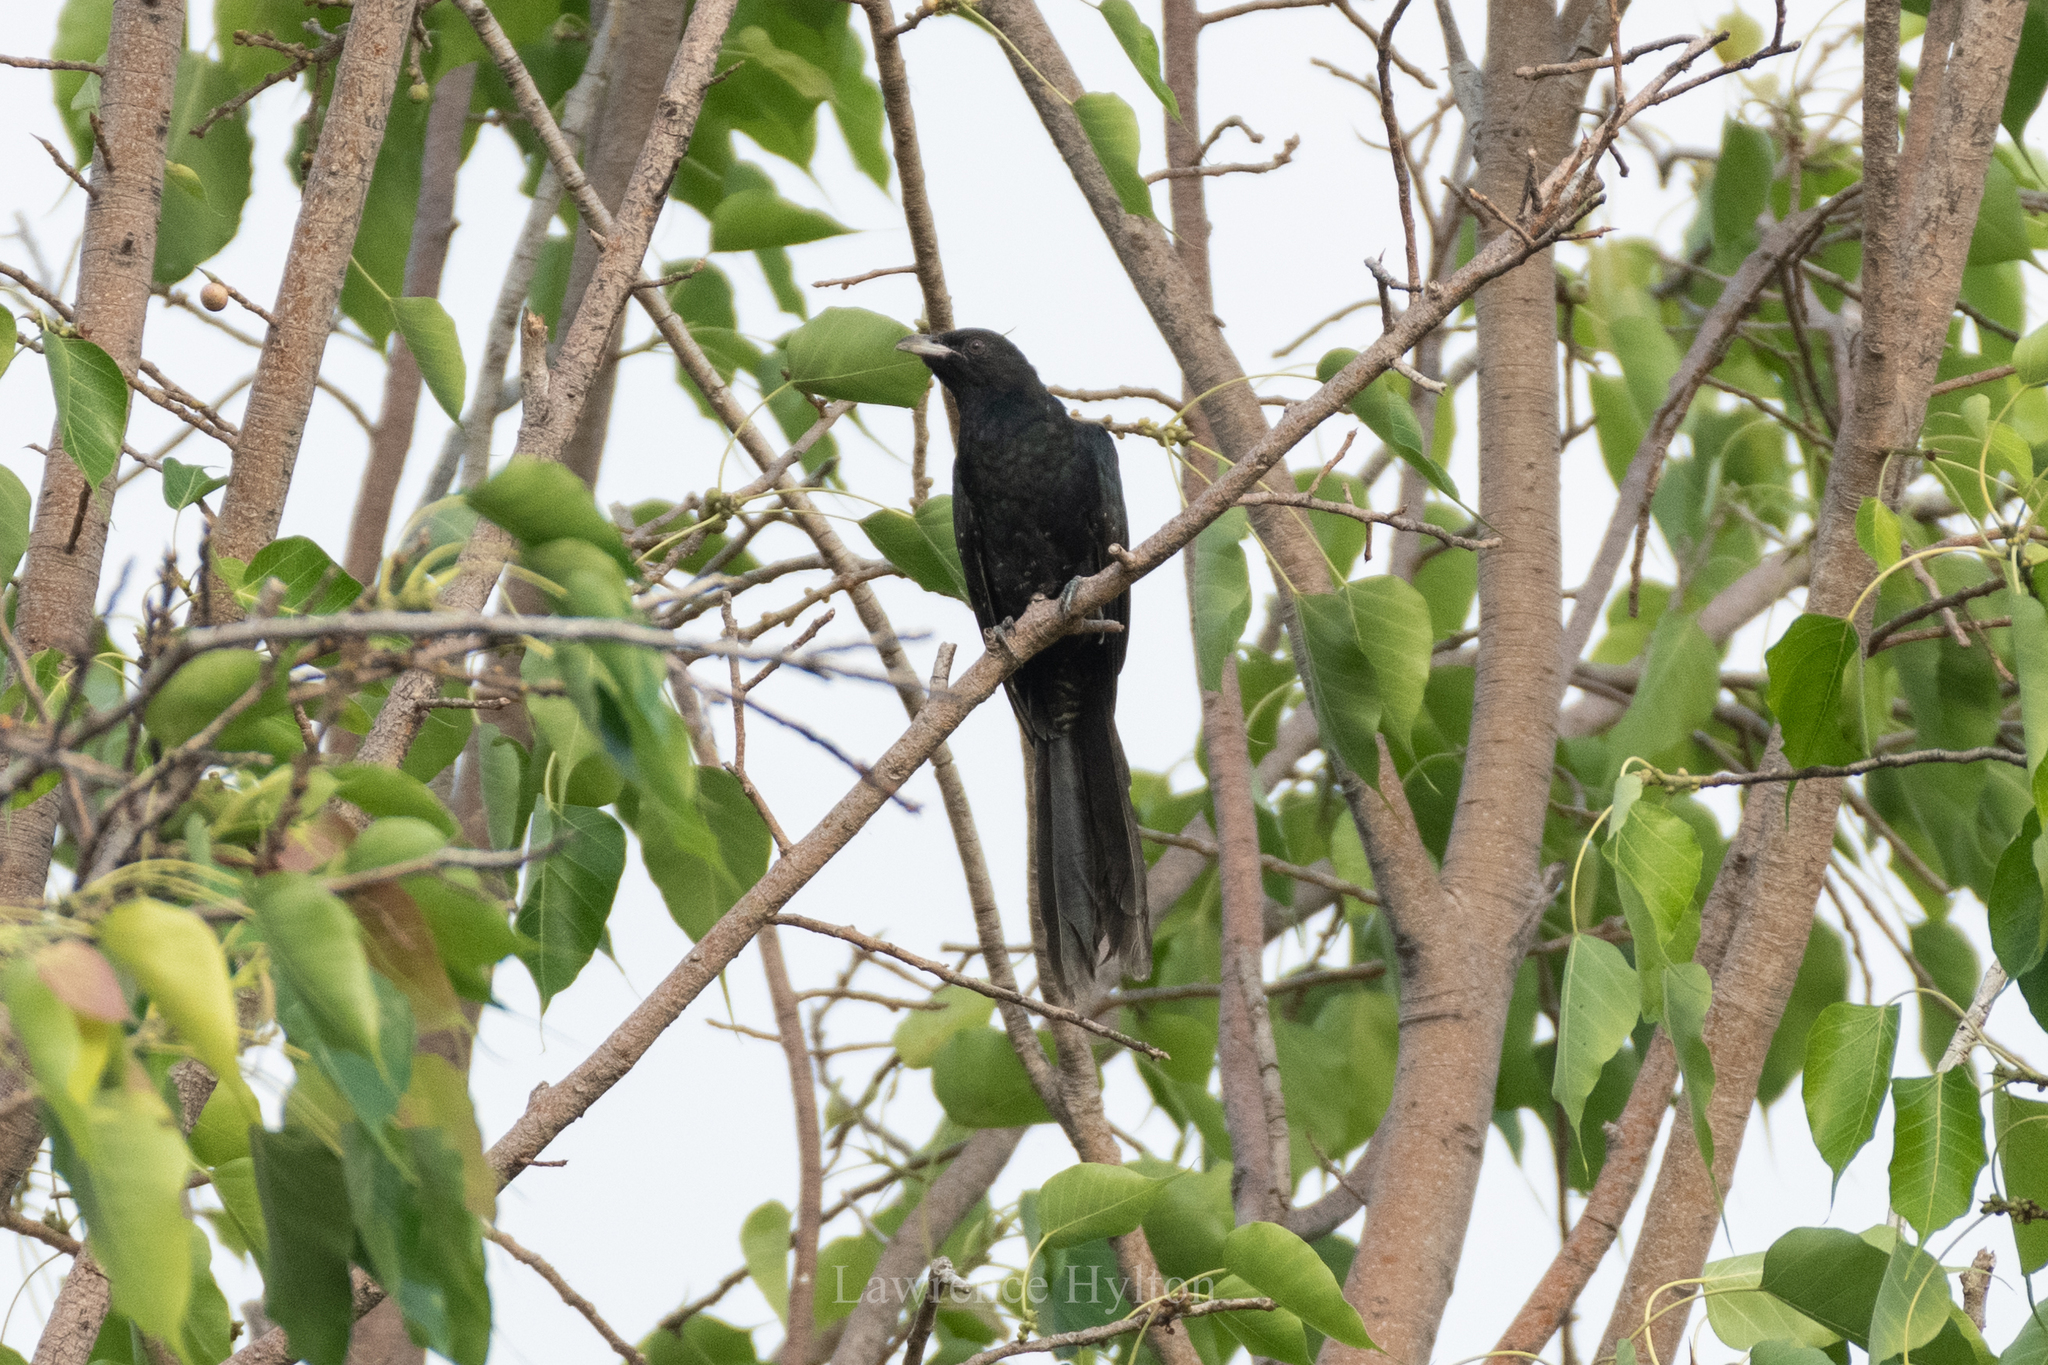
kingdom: Animalia
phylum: Chordata
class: Aves
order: Cuculiformes
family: Cuculidae
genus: Eudynamys
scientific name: Eudynamys scolopaceus
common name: Asian koel
